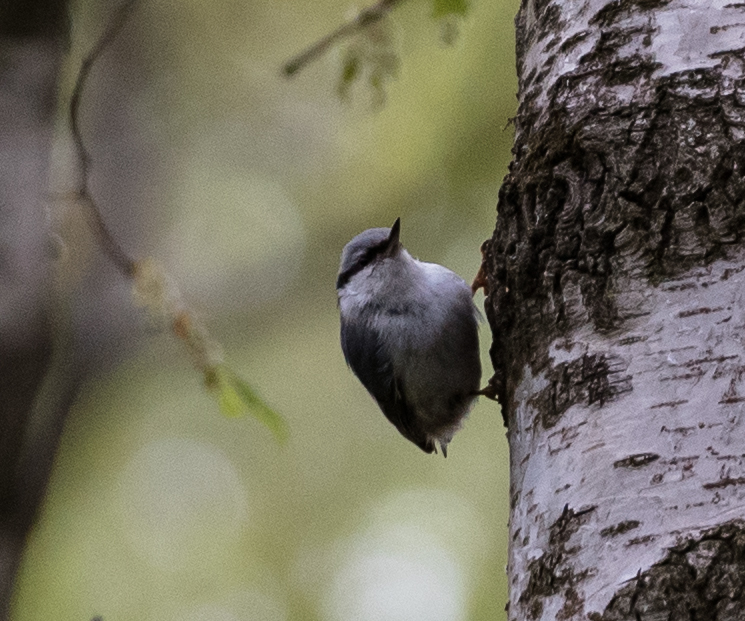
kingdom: Animalia
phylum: Chordata
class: Aves
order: Passeriformes
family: Sittidae
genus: Sitta
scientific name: Sitta europaea
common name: Eurasian nuthatch
